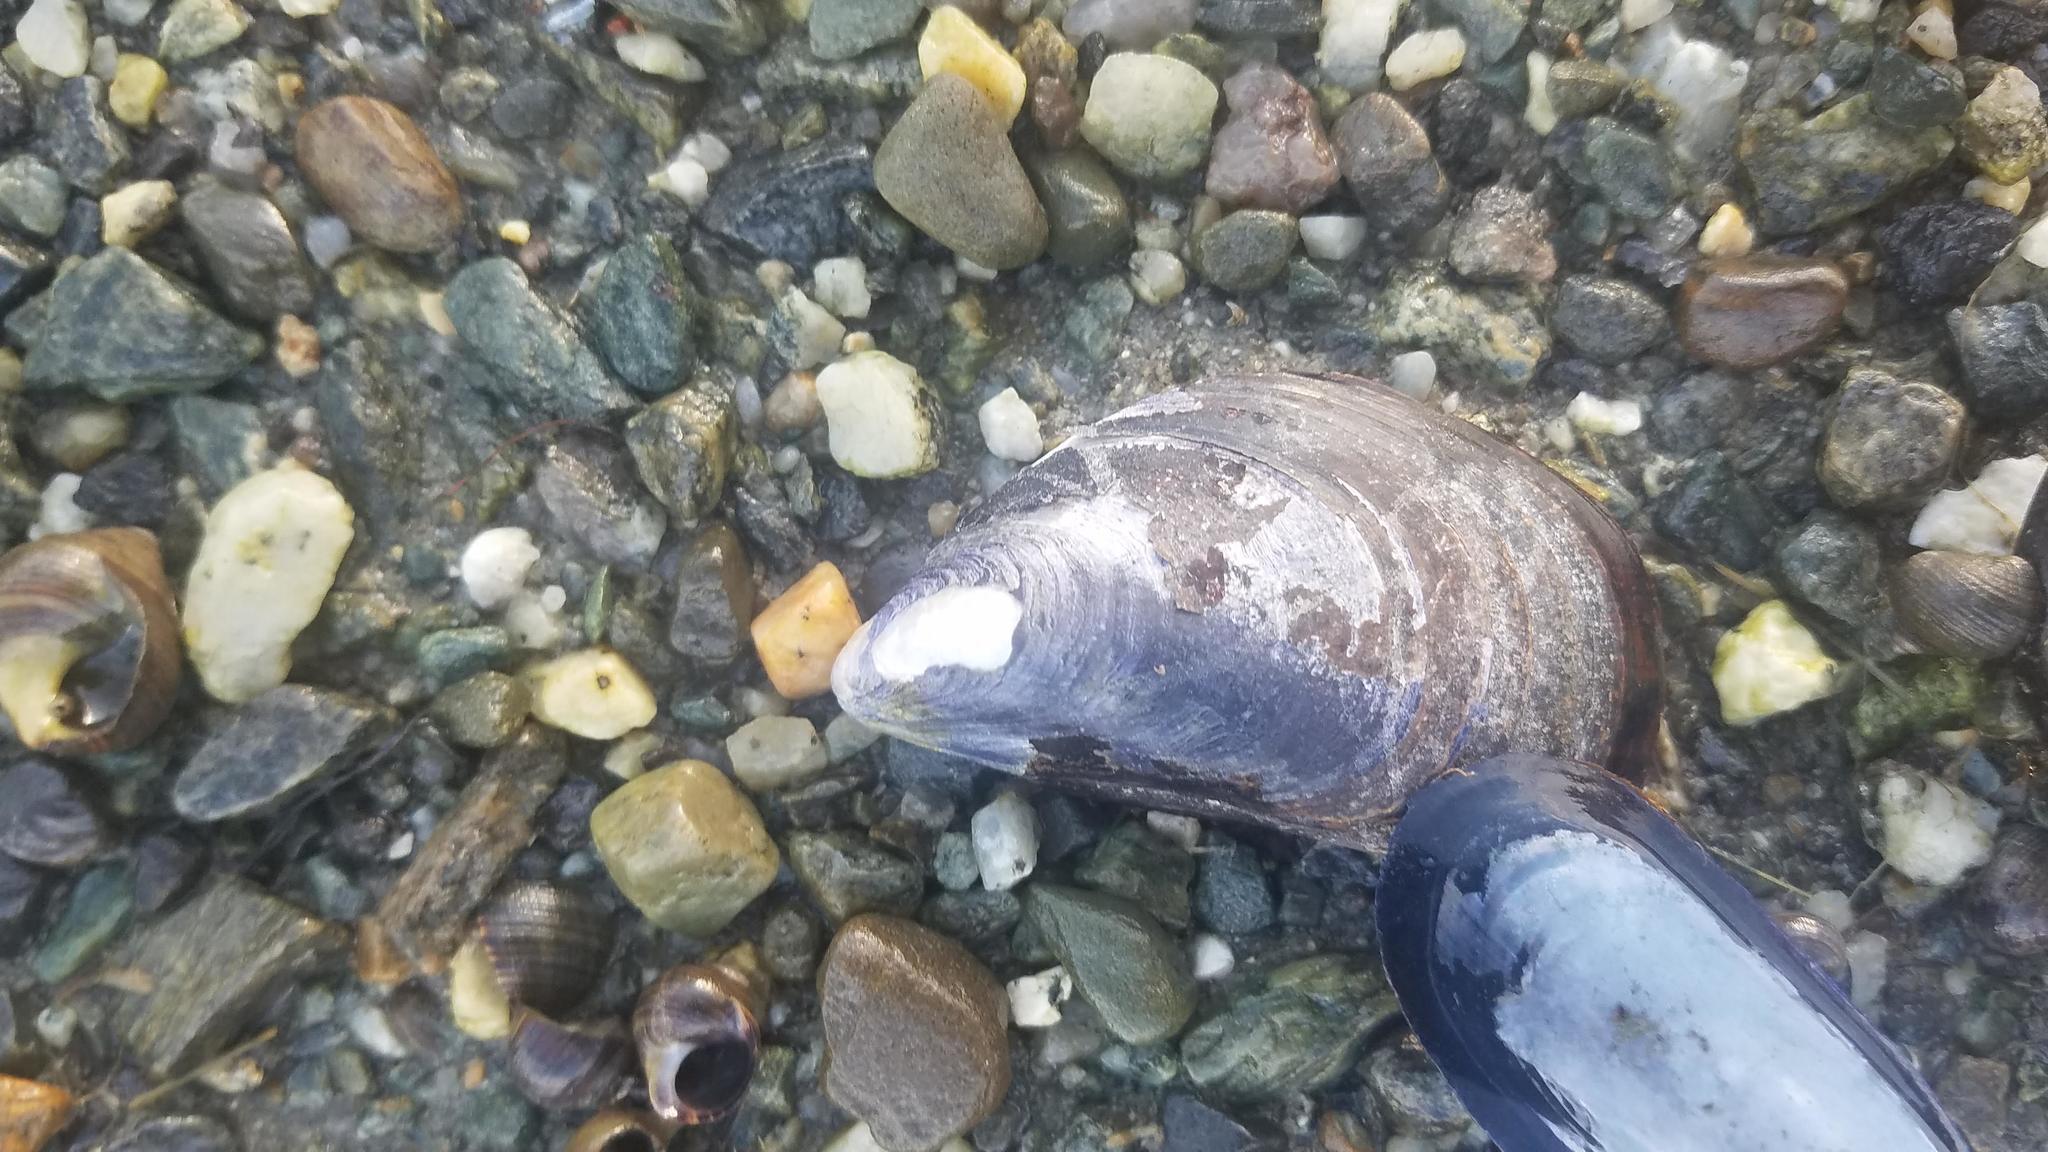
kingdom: Animalia
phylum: Mollusca
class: Bivalvia
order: Mytilida
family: Mytilidae
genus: Mytilus
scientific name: Mytilus edulis
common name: Blue mussel
